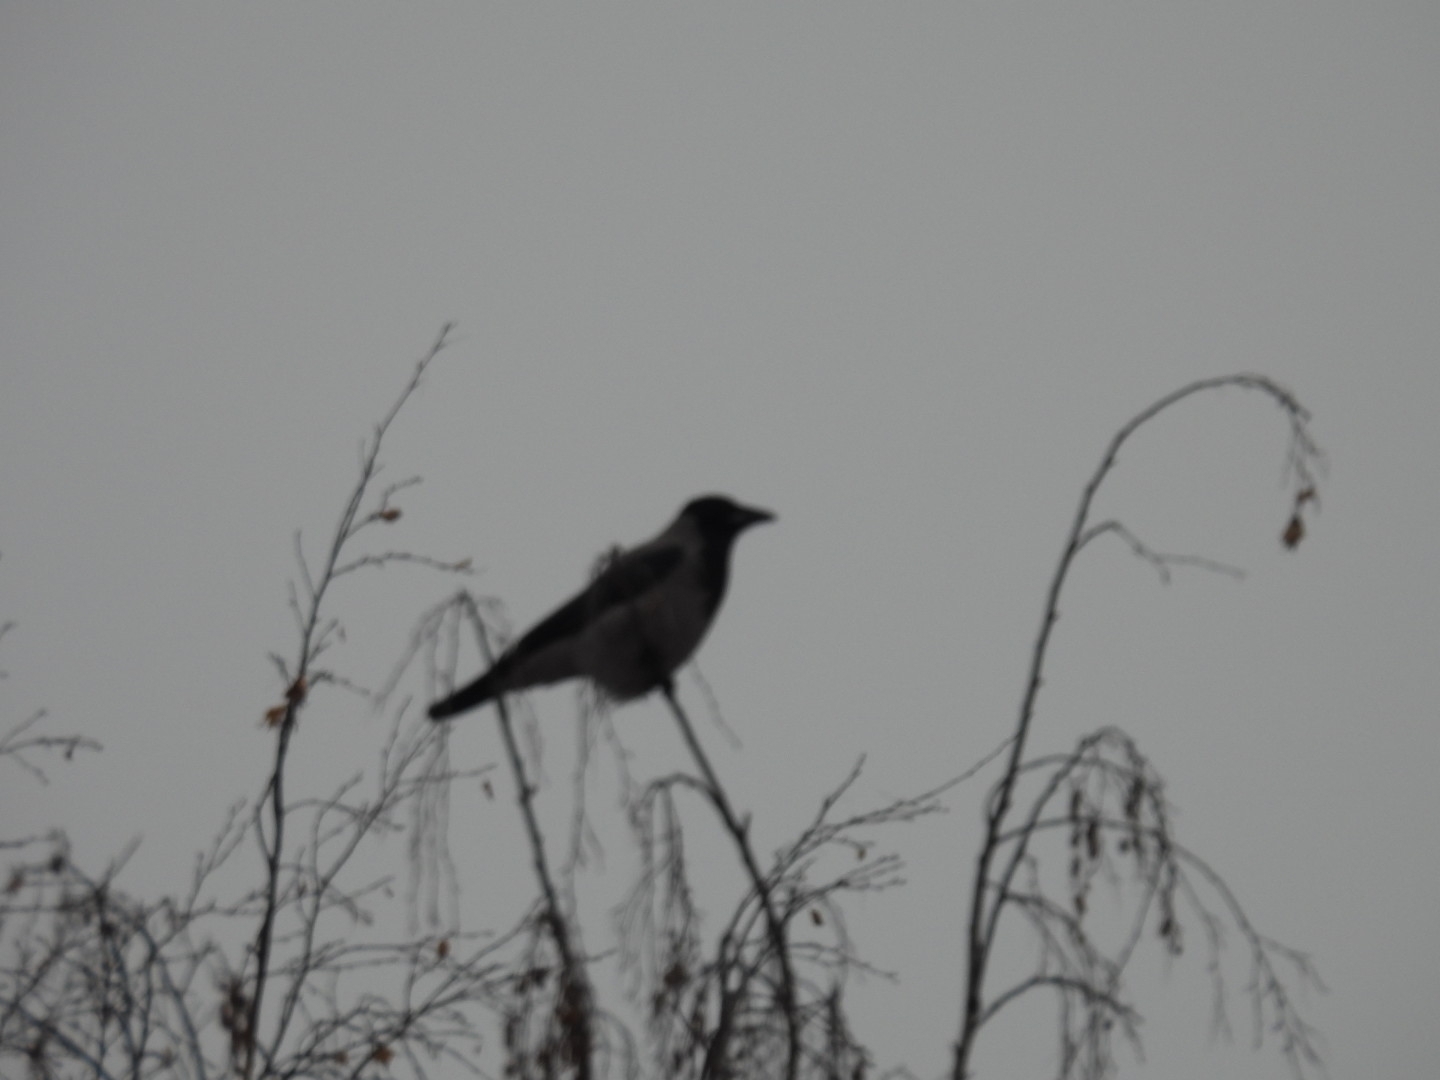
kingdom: Animalia
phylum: Chordata
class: Aves
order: Passeriformes
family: Corvidae
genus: Garrulus
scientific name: Garrulus glandarius
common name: Eurasian jay
